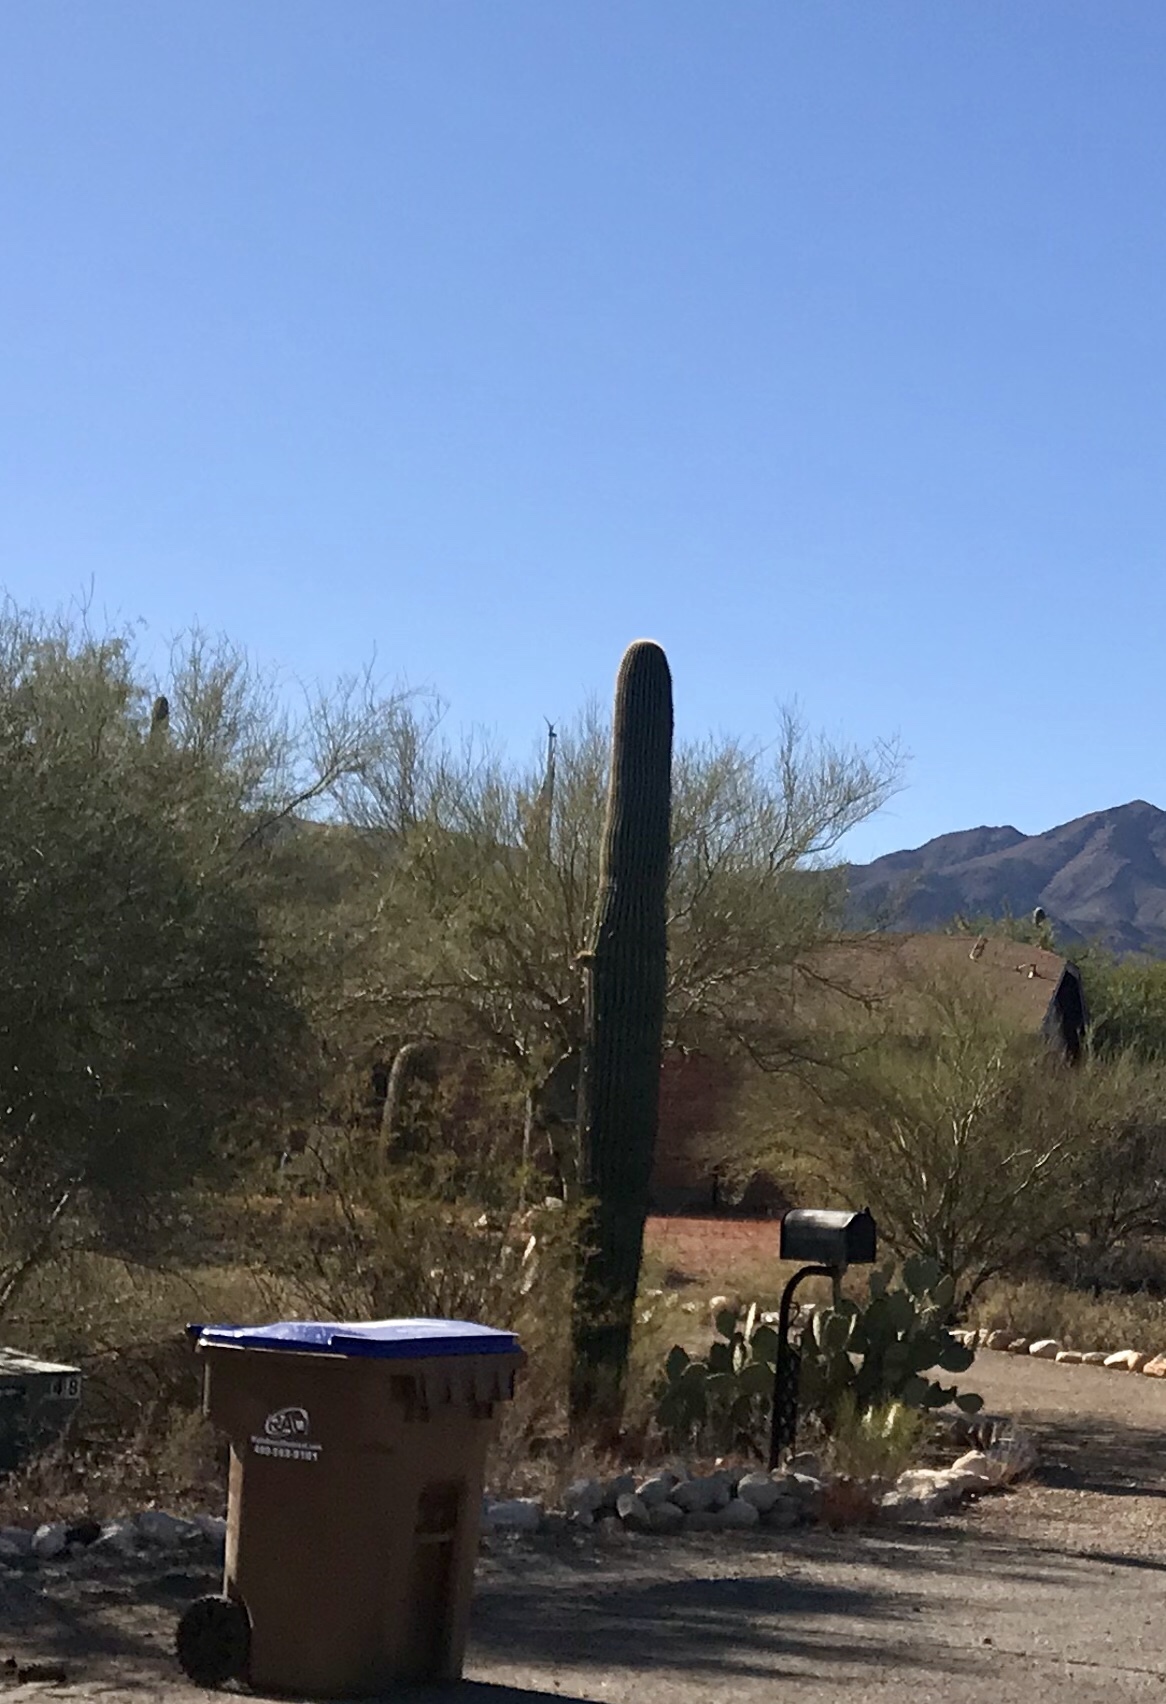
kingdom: Plantae
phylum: Tracheophyta
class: Magnoliopsida
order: Caryophyllales
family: Cactaceae
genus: Carnegiea
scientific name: Carnegiea gigantea
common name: Saguaro
